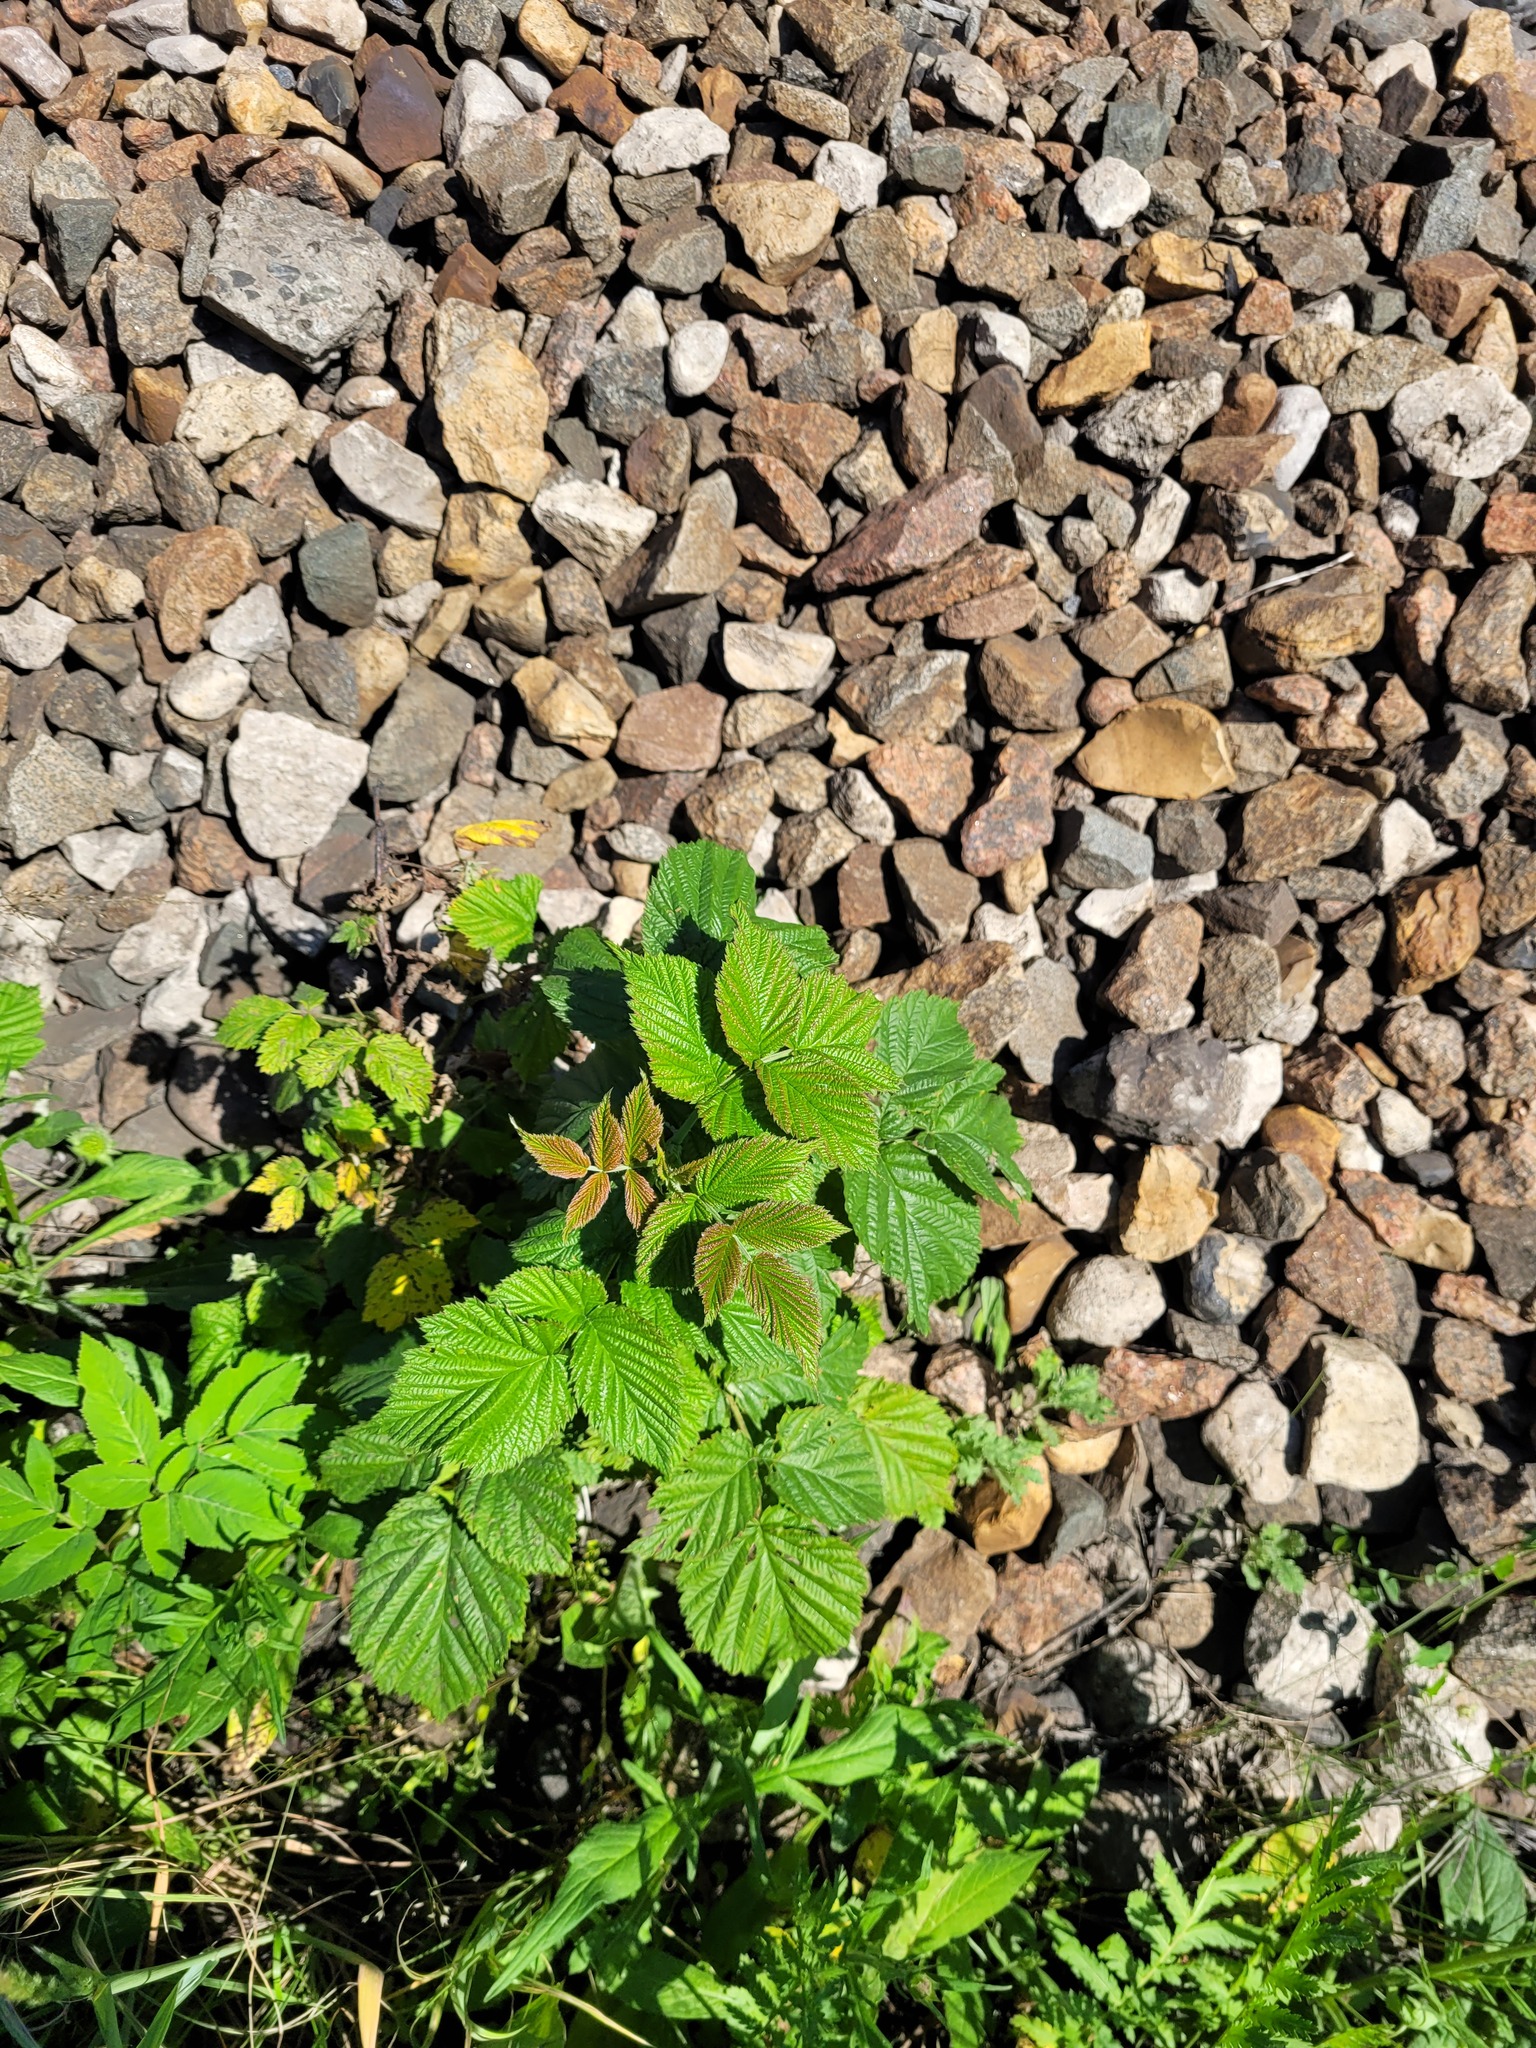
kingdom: Plantae
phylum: Tracheophyta
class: Magnoliopsida
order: Rosales
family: Rosaceae
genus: Rubus
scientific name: Rubus idaeus
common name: Raspberry
